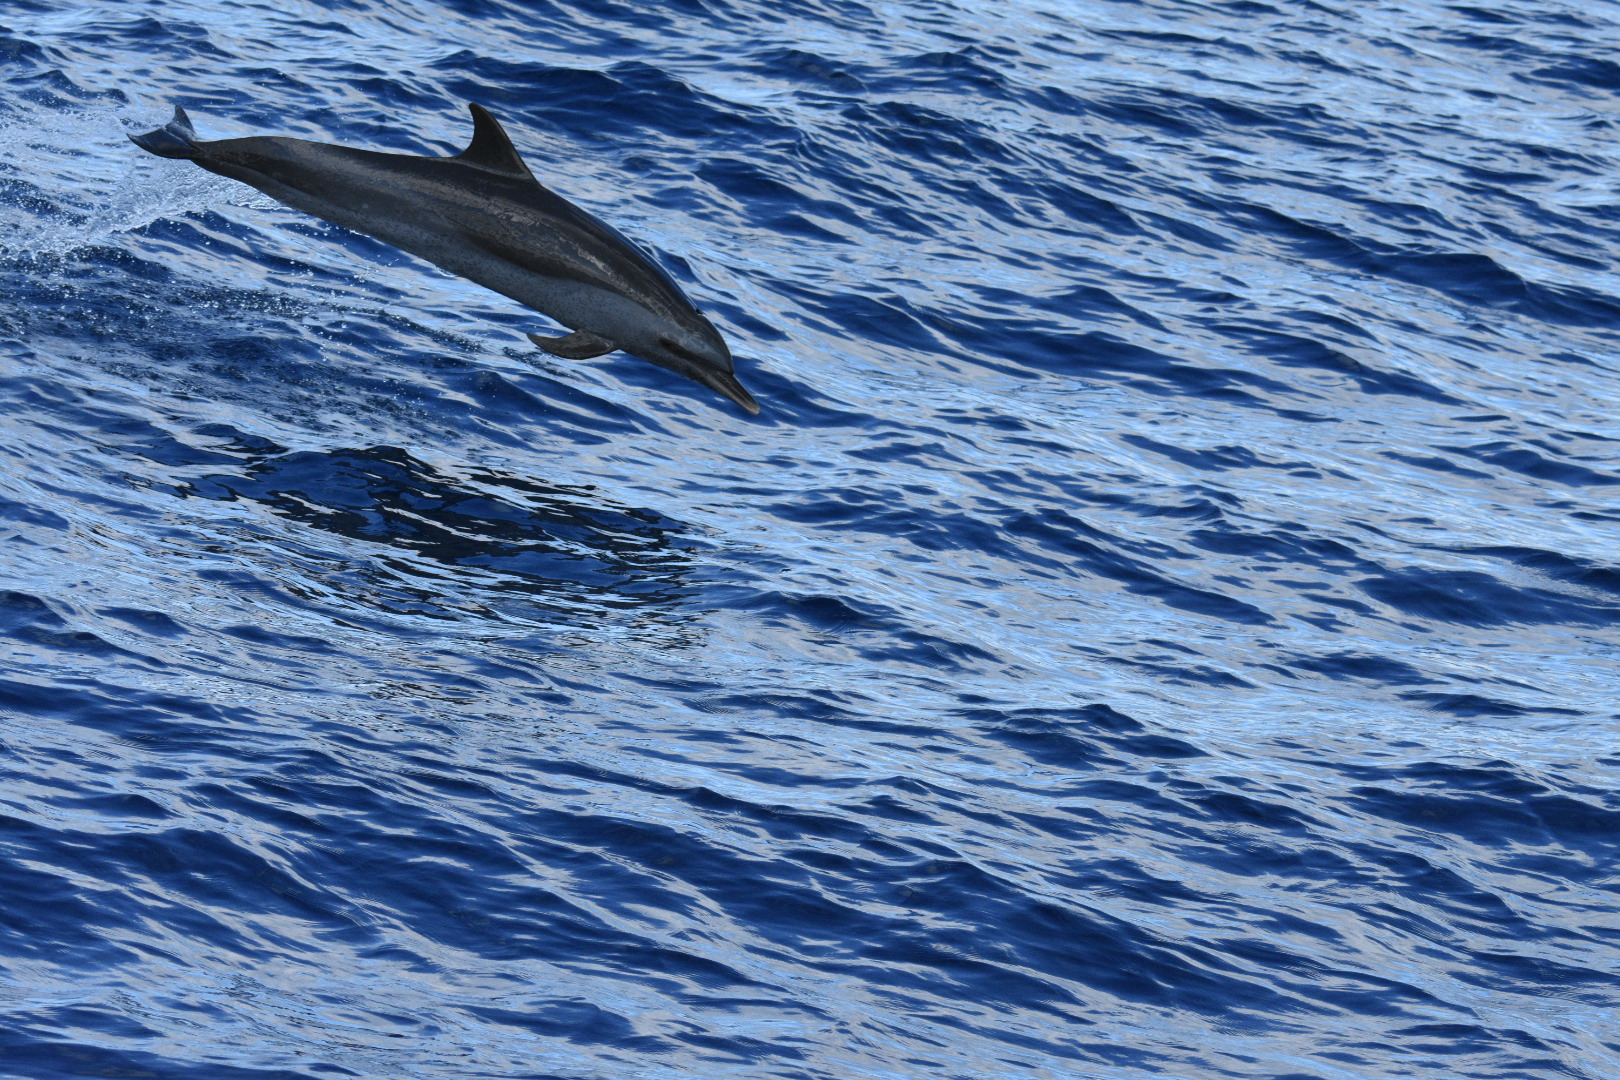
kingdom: Animalia
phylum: Chordata
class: Mammalia
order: Cetacea
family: Delphinidae
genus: Stenella
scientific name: Stenella attenuata
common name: Pantropical spotted dolphin
